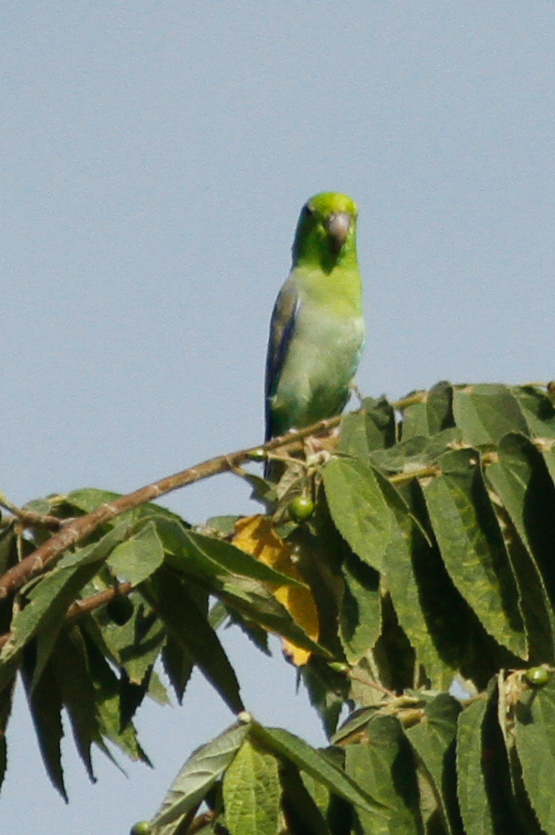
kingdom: Animalia
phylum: Chordata
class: Aves
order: Psittaciformes
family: Psittacidae
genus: Forpus
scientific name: Forpus coelestis
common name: Pacific parrotlet
